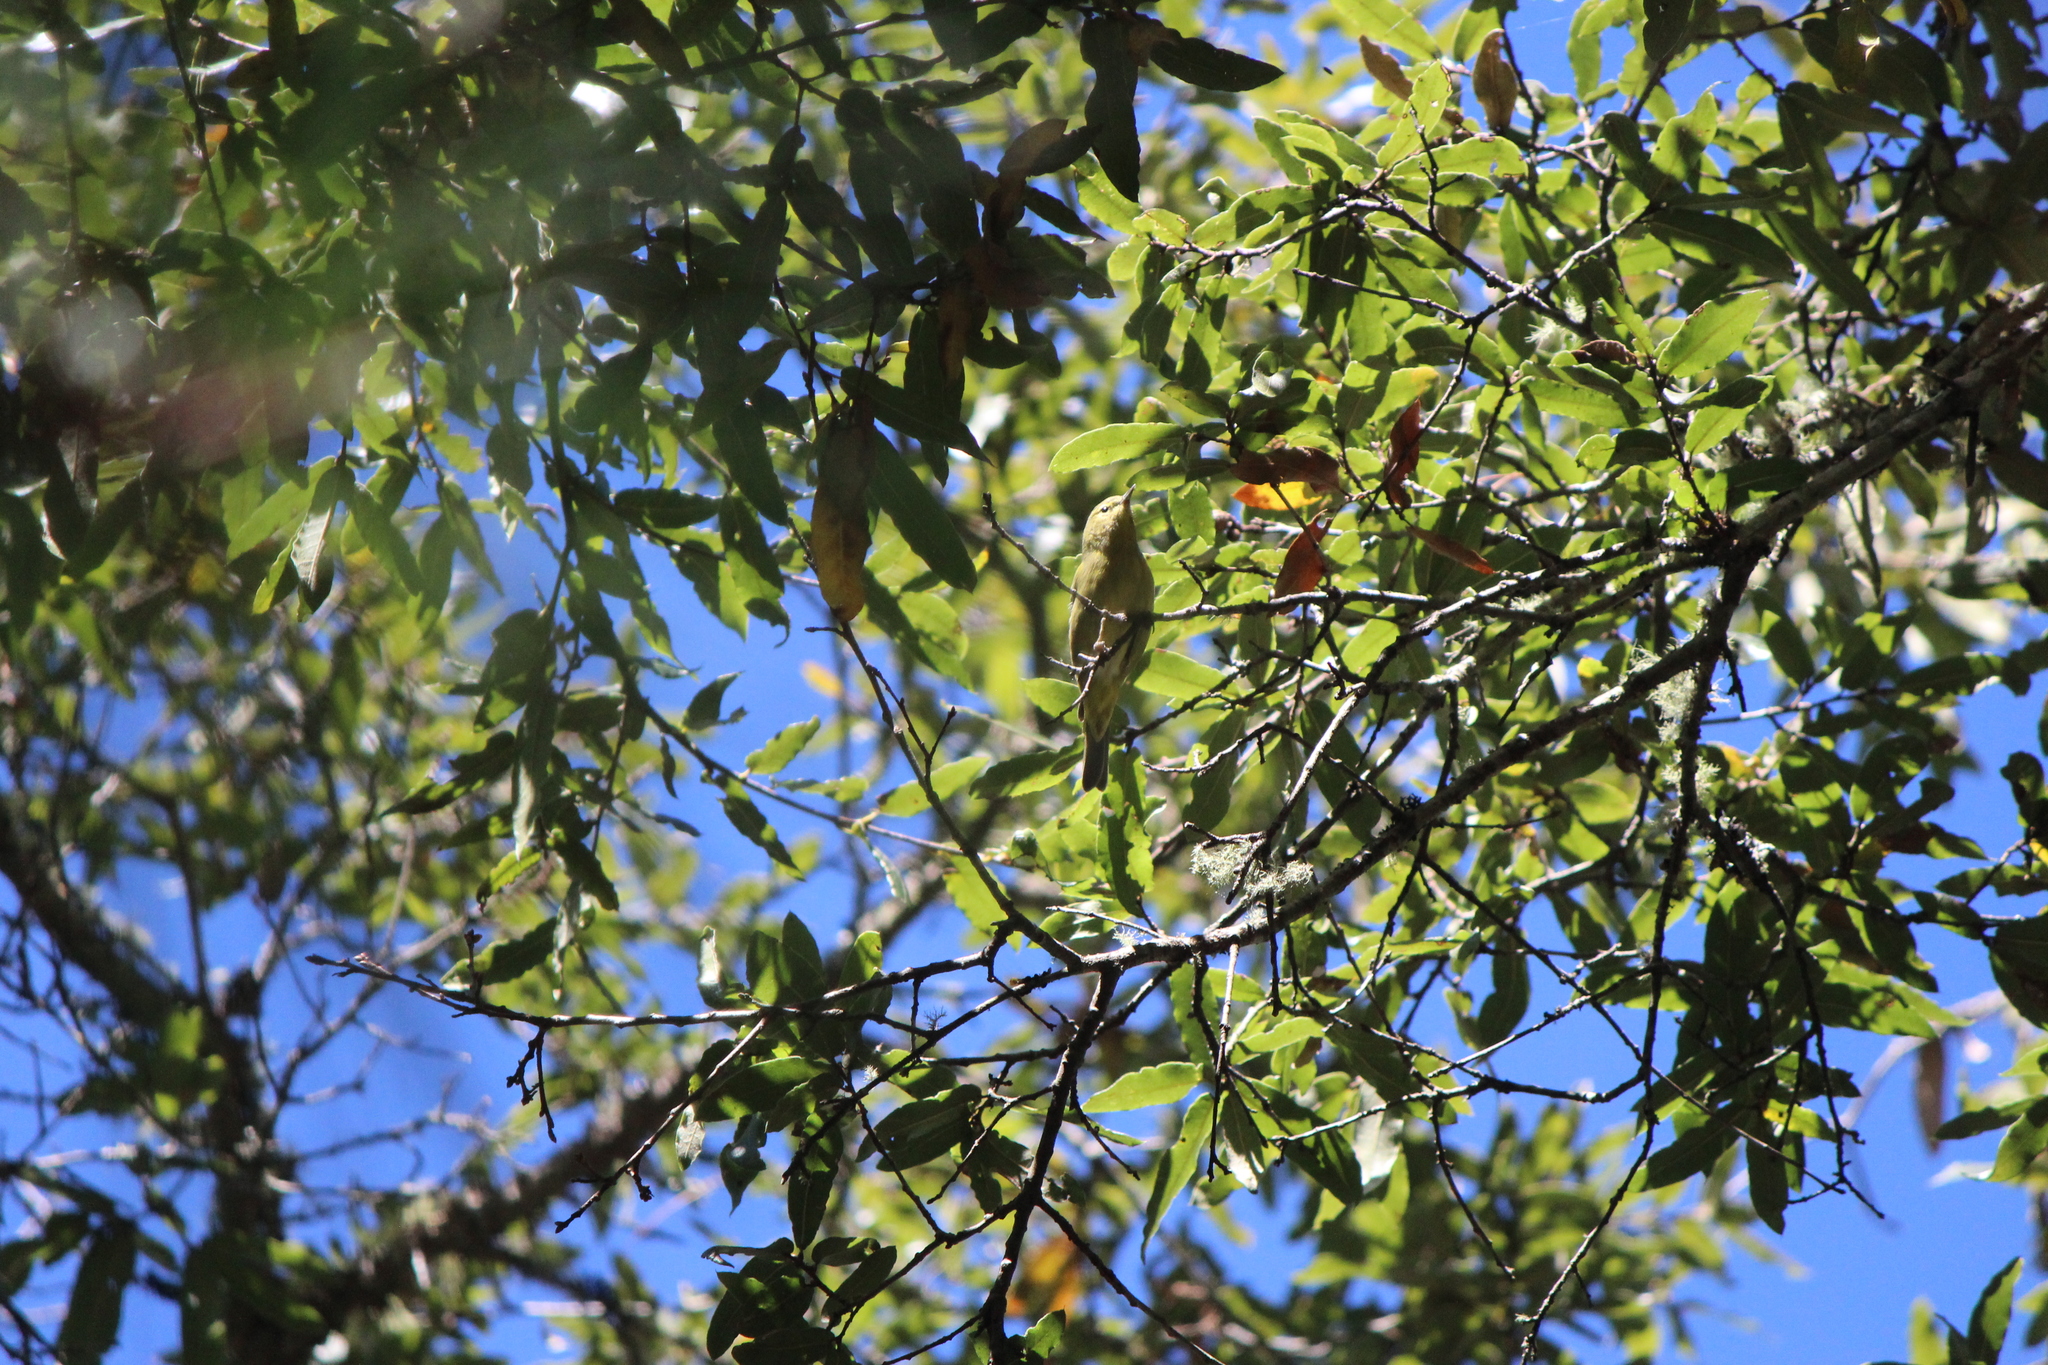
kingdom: Animalia
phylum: Chordata
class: Aves
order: Passeriformes
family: Parulidae
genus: Leiothlypis
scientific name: Leiothlypis celata
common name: Orange-crowned warbler
